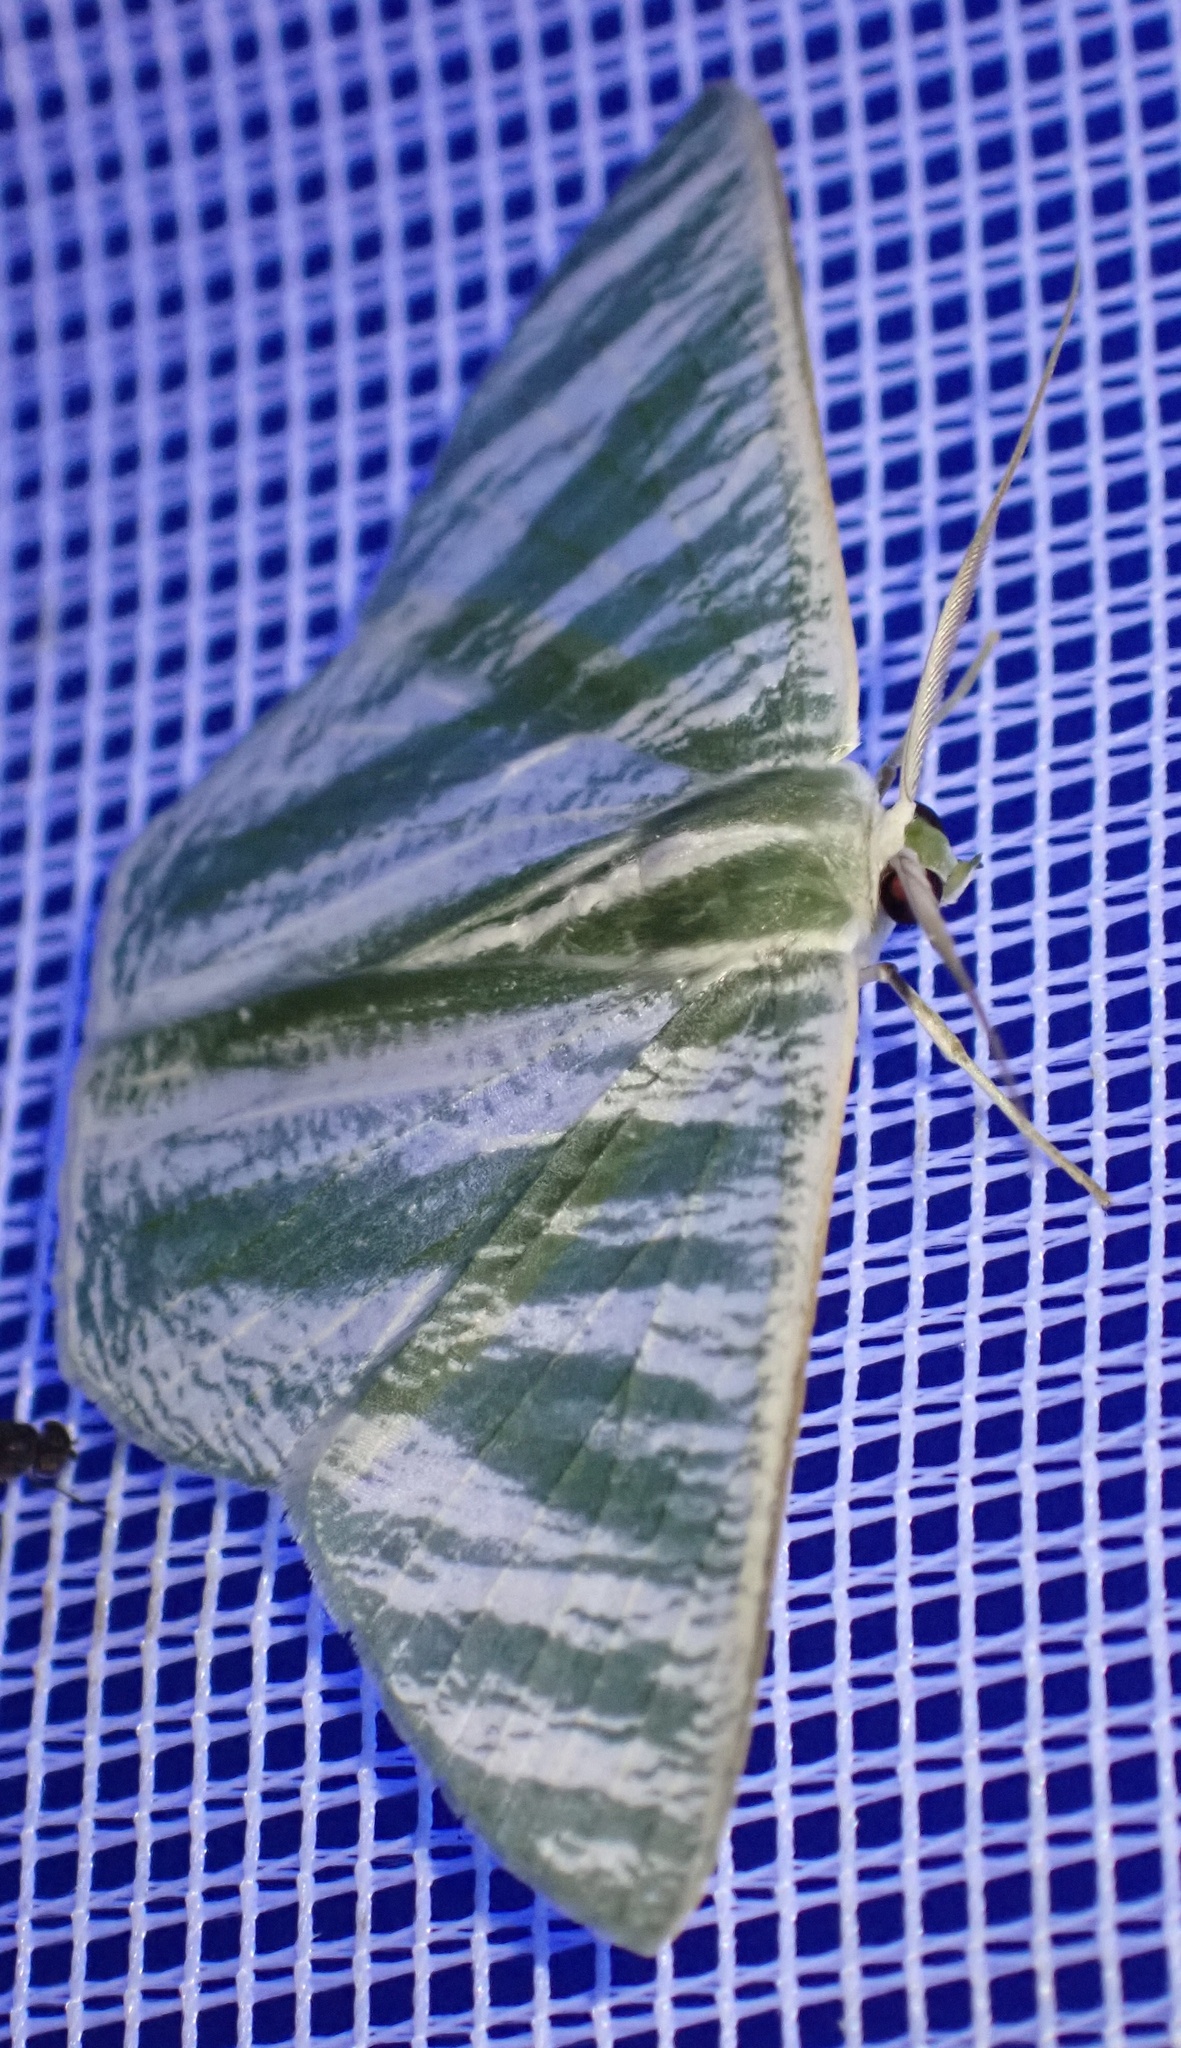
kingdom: Animalia
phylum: Arthropoda
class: Insecta
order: Lepidoptera
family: Geometridae
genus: Thalassodes
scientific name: Thalassodes nivestrota
